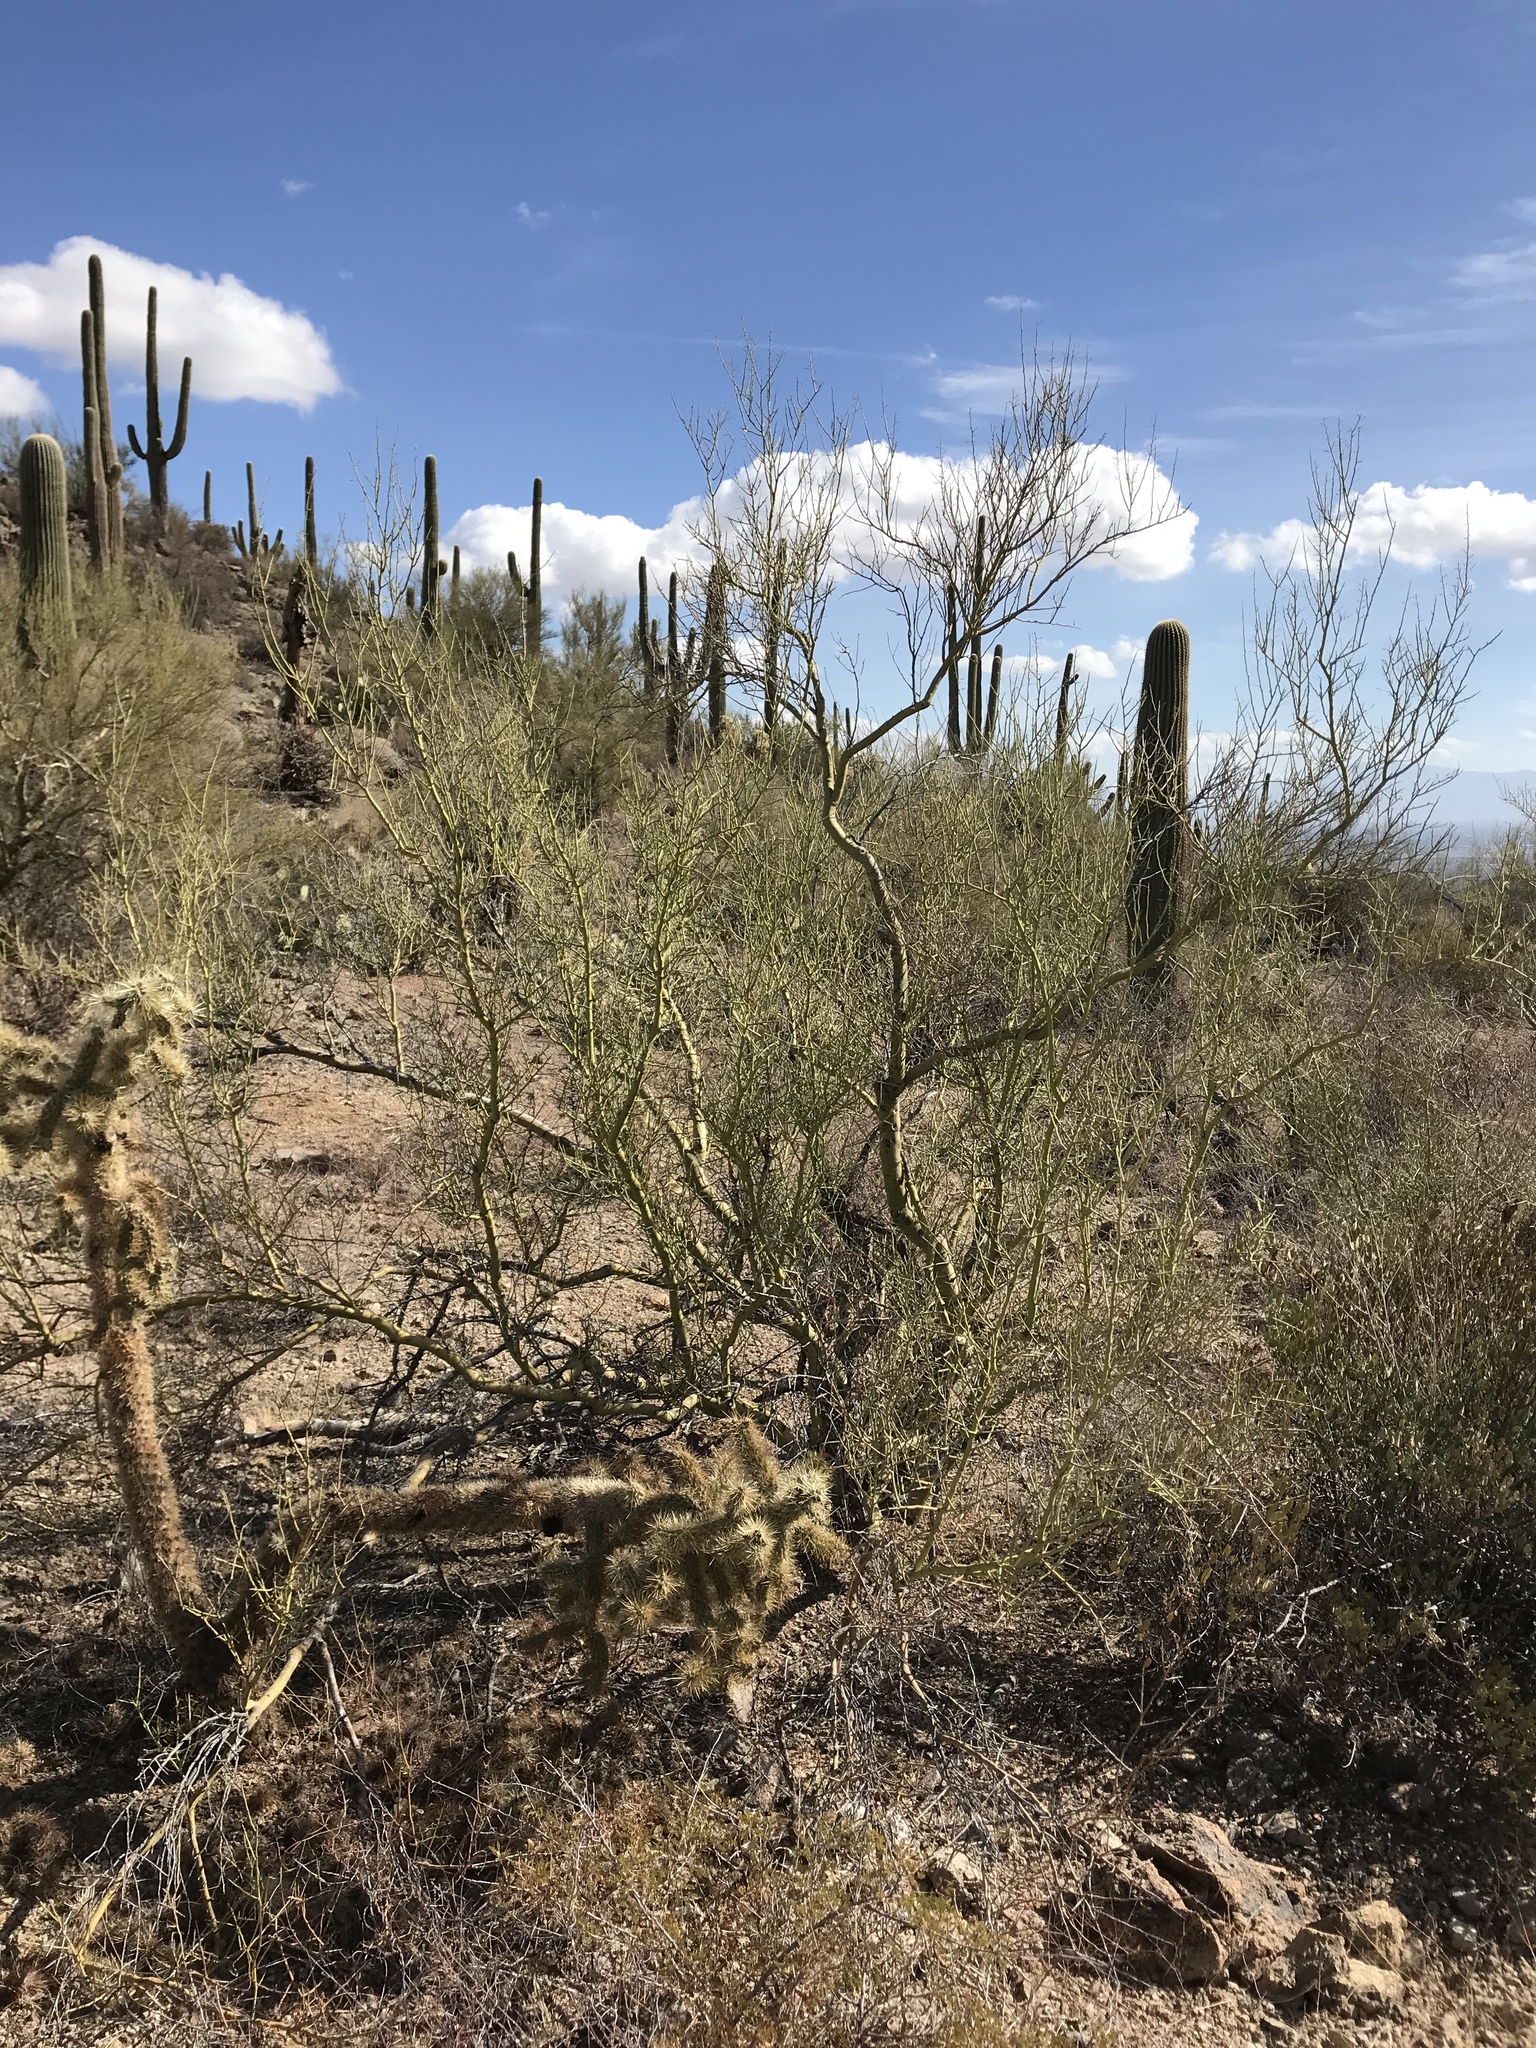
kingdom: Plantae
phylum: Tracheophyta
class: Magnoliopsida
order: Fabales
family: Fabaceae
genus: Parkinsonia
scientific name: Parkinsonia microphylla
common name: Yellow paloverde
